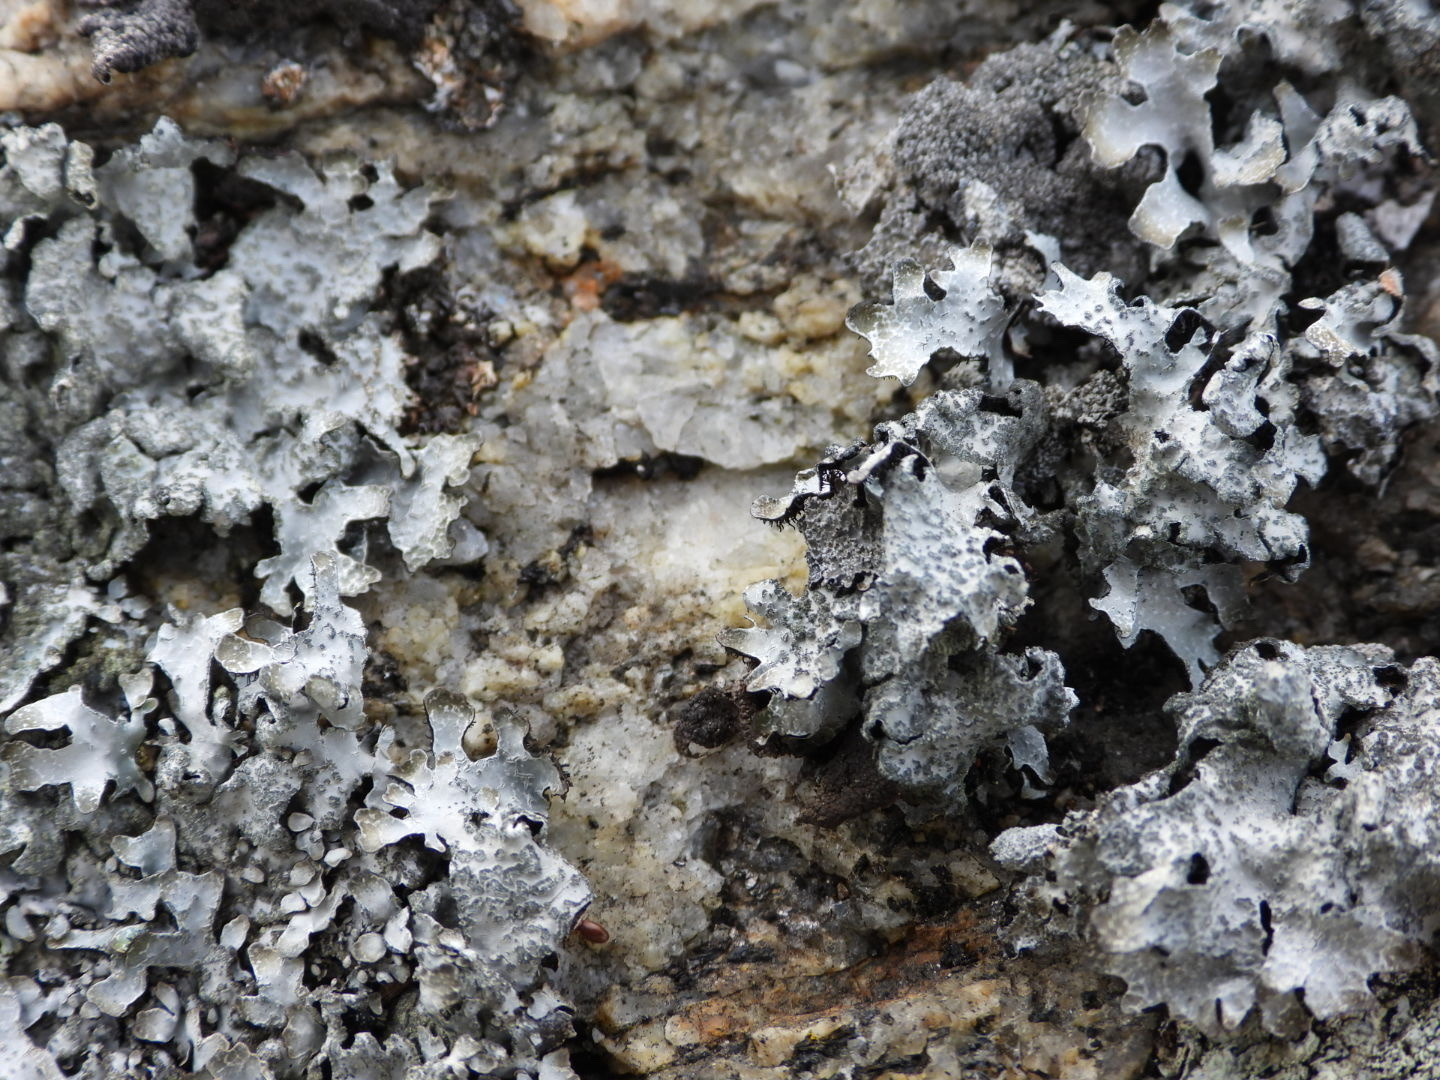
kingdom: Fungi
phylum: Ascomycota
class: Lecanoromycetes
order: Lecanorales
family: Parmeliaceae
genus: Parmelia
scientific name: Parmelia sulcata
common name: Netted shield lichen
